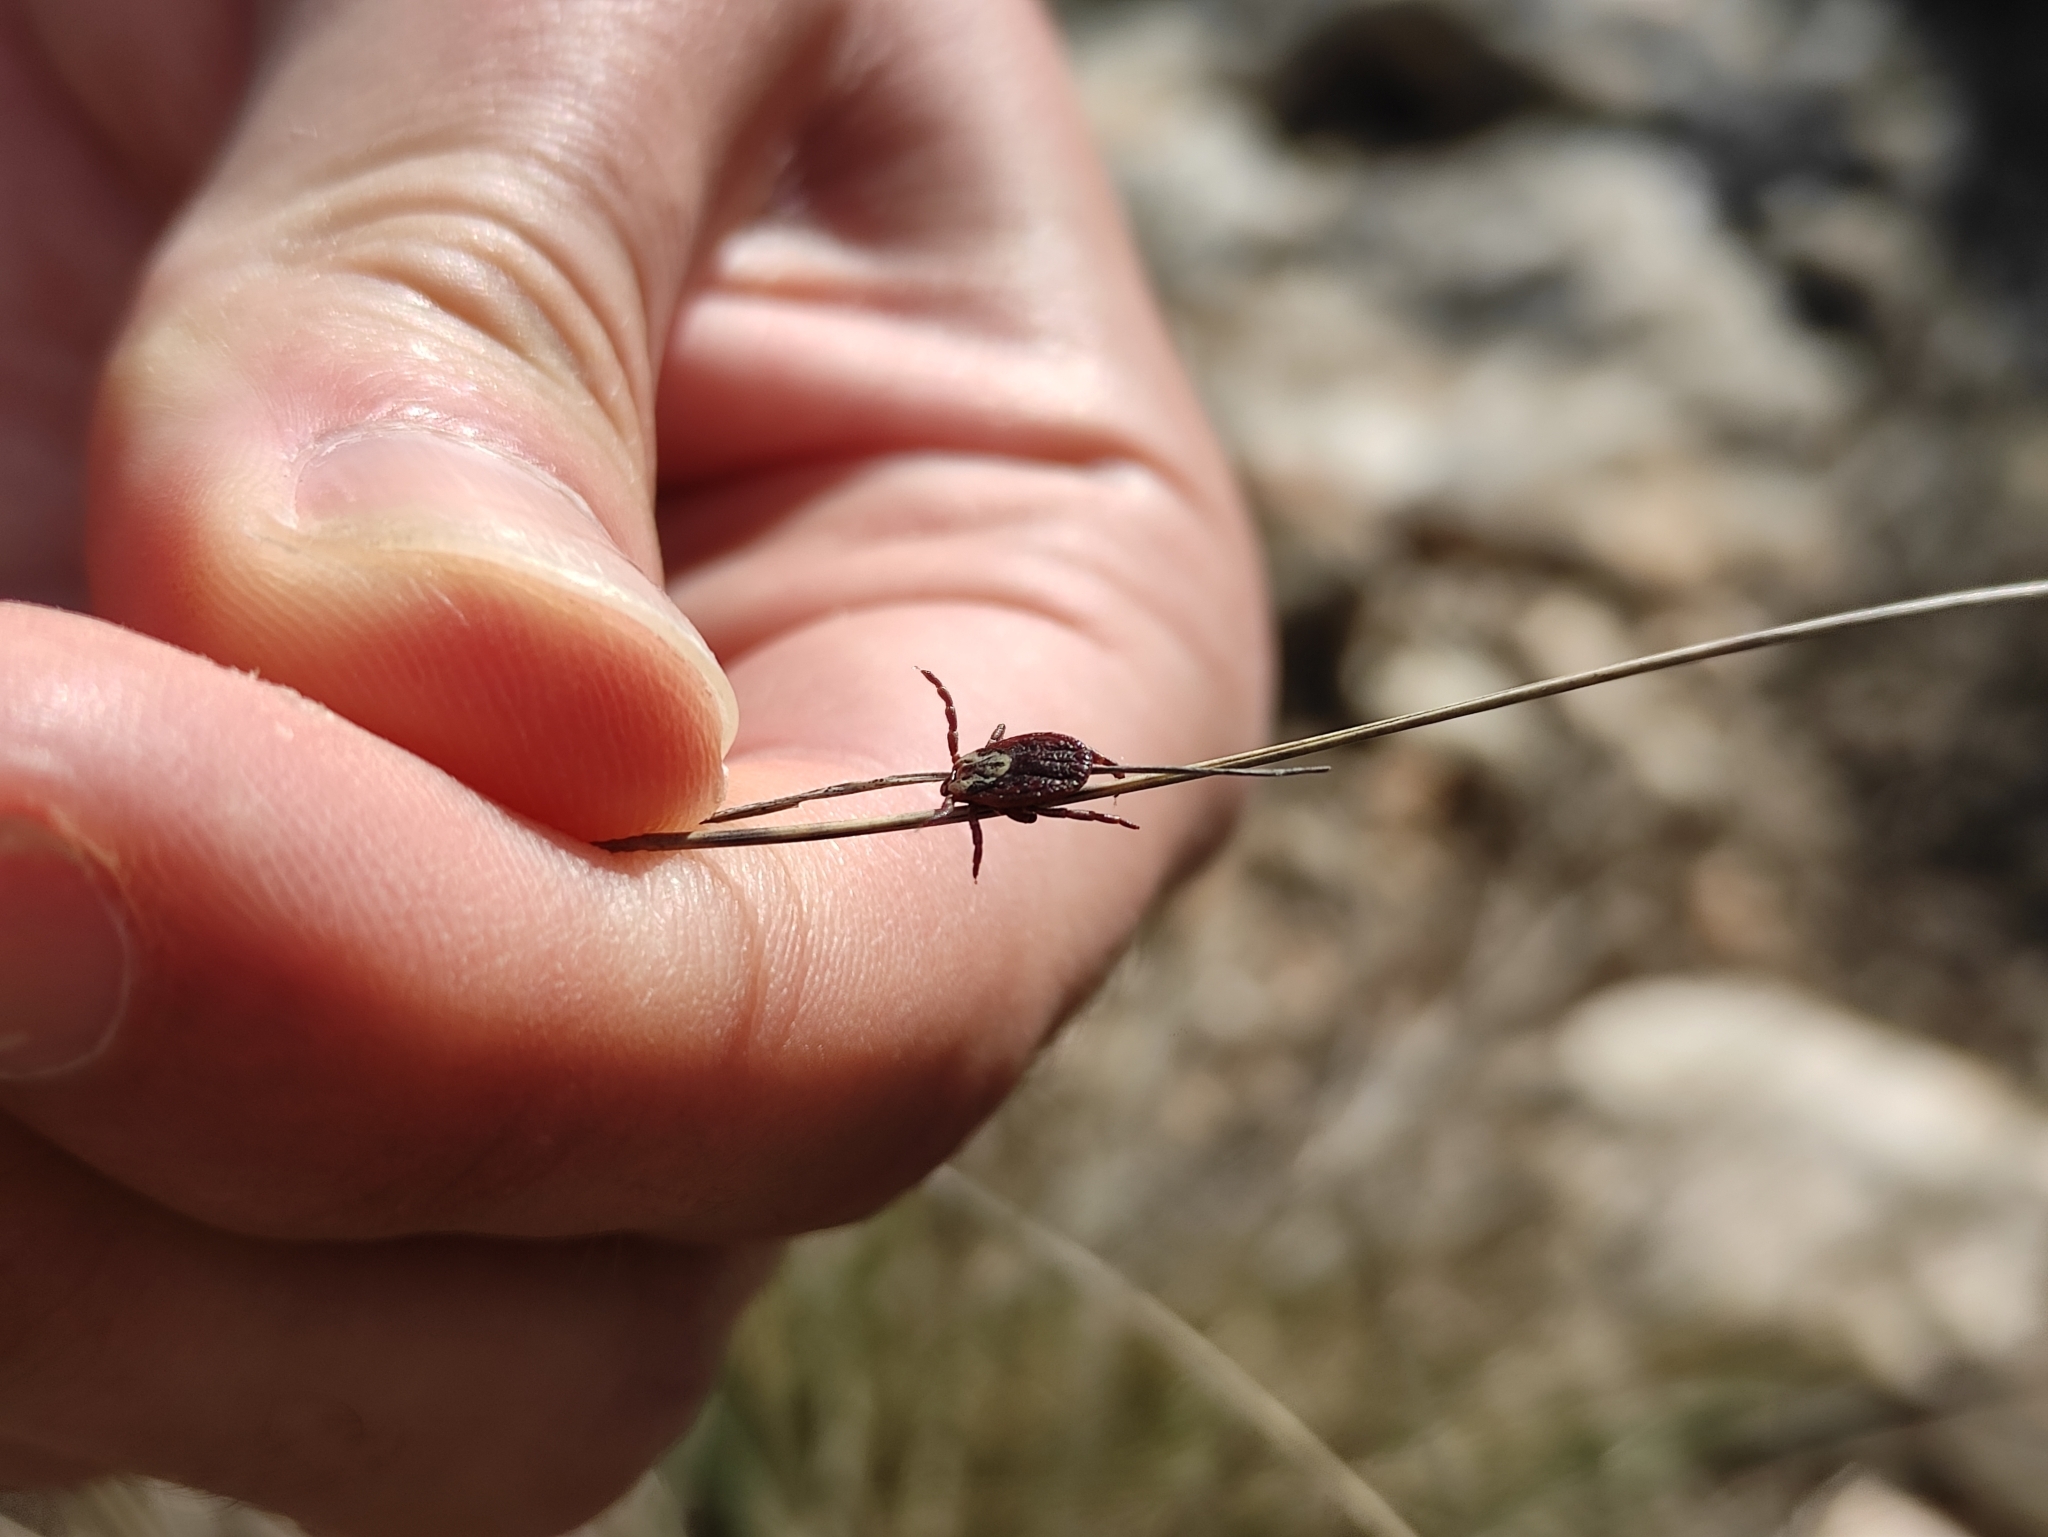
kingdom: Animalia
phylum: Arthropoda
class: Arachnida
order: Ixodida
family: Ixodidae
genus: Dermacentor
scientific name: Dermacentor marginatus
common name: Ornate sheep tick
